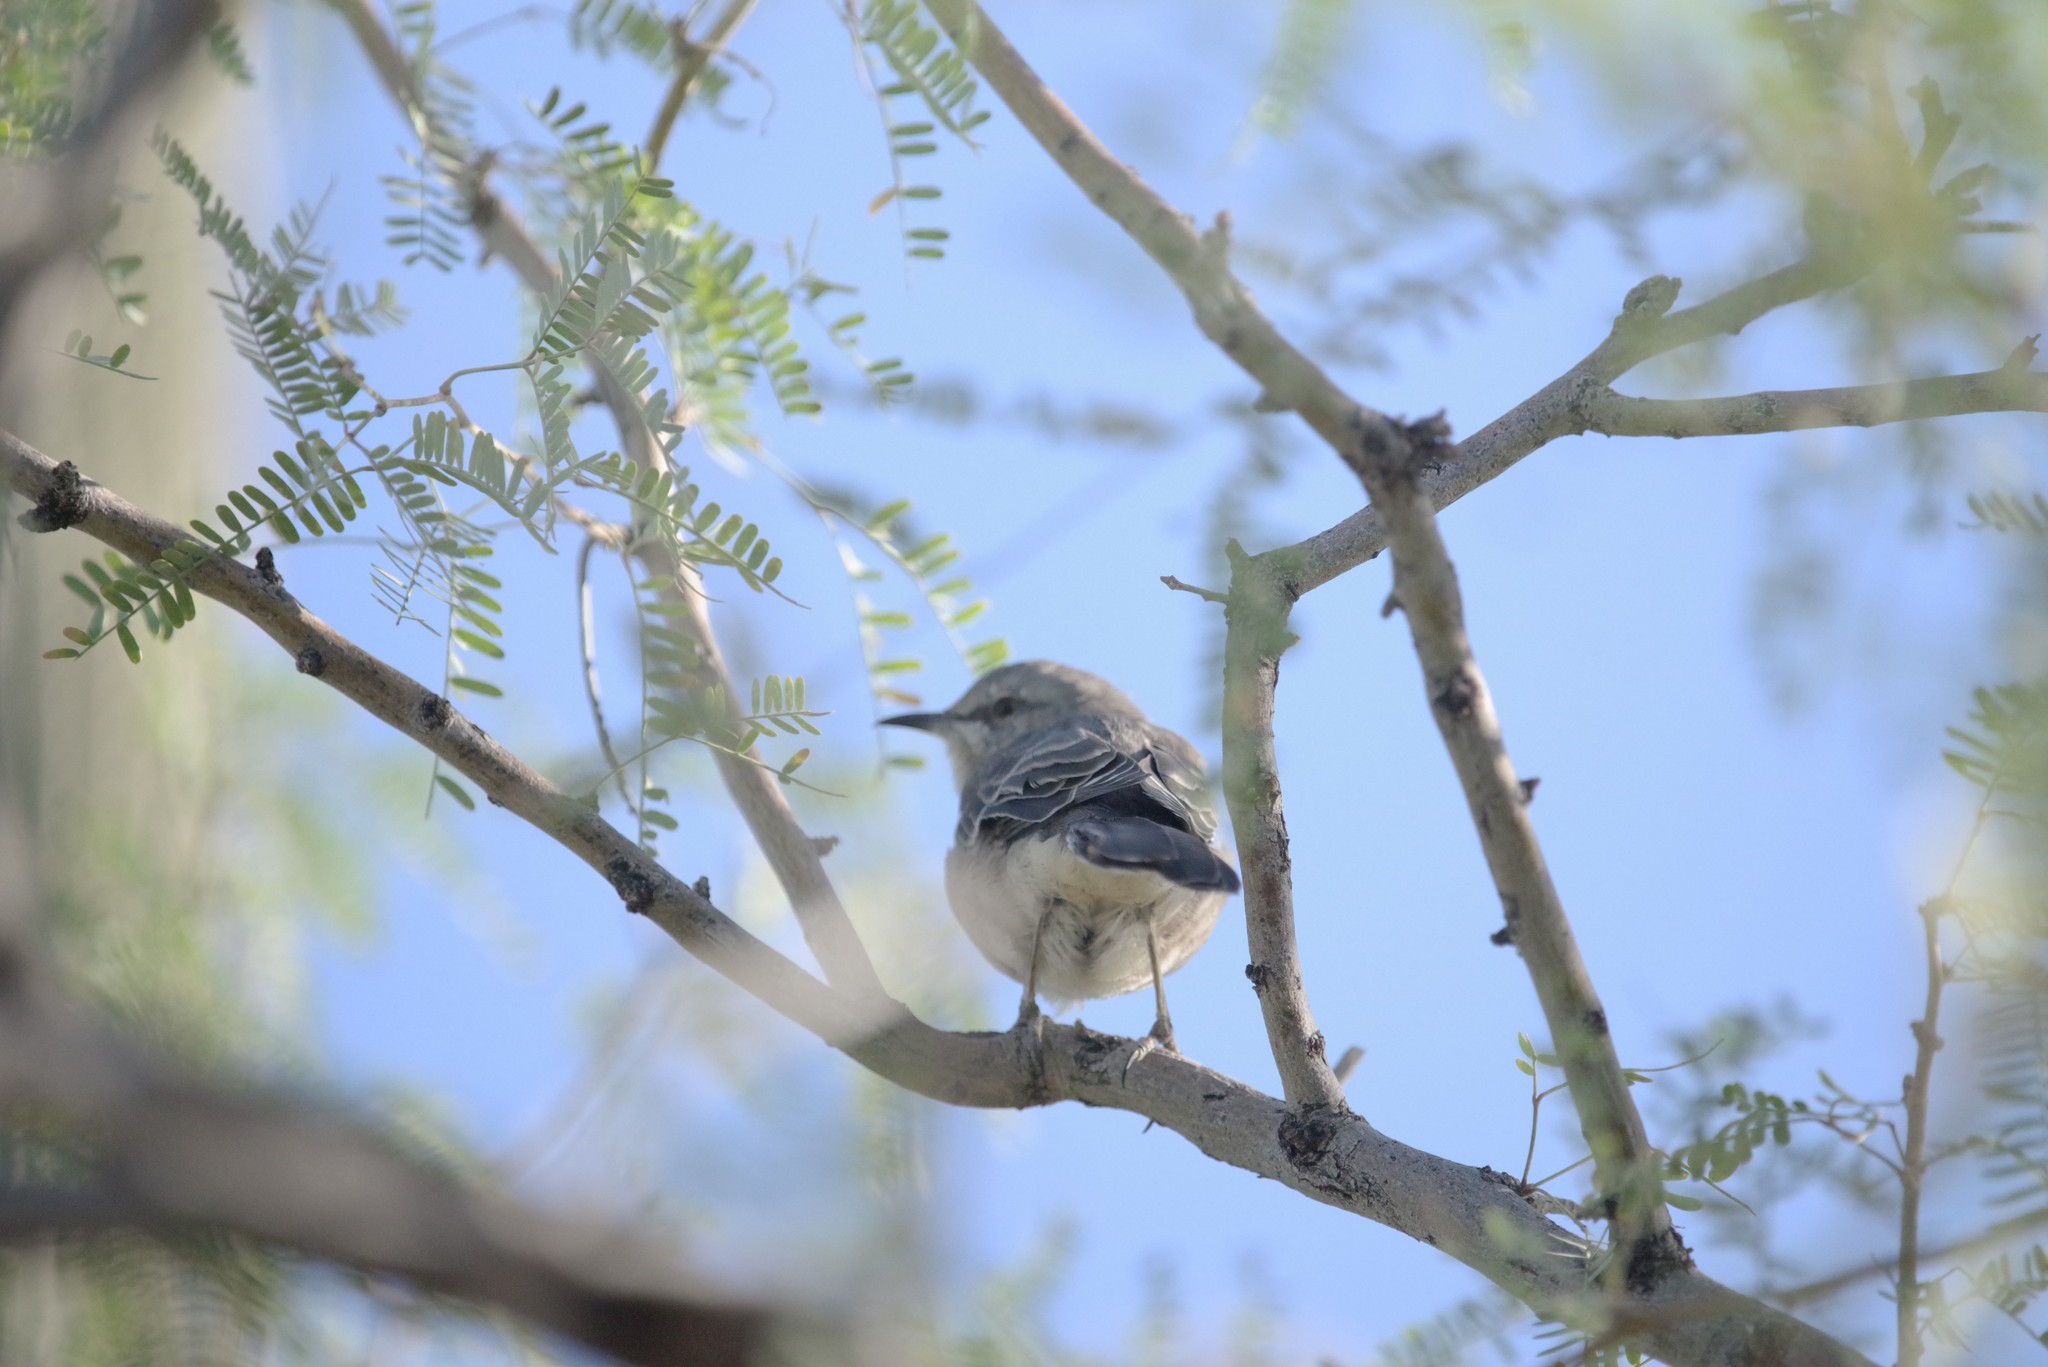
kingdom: Animalia
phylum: Chordata
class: Aves
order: Passeriformes
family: Mimidae
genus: Mimus
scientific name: Mimus polyglottos
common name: Northern mockingbird
